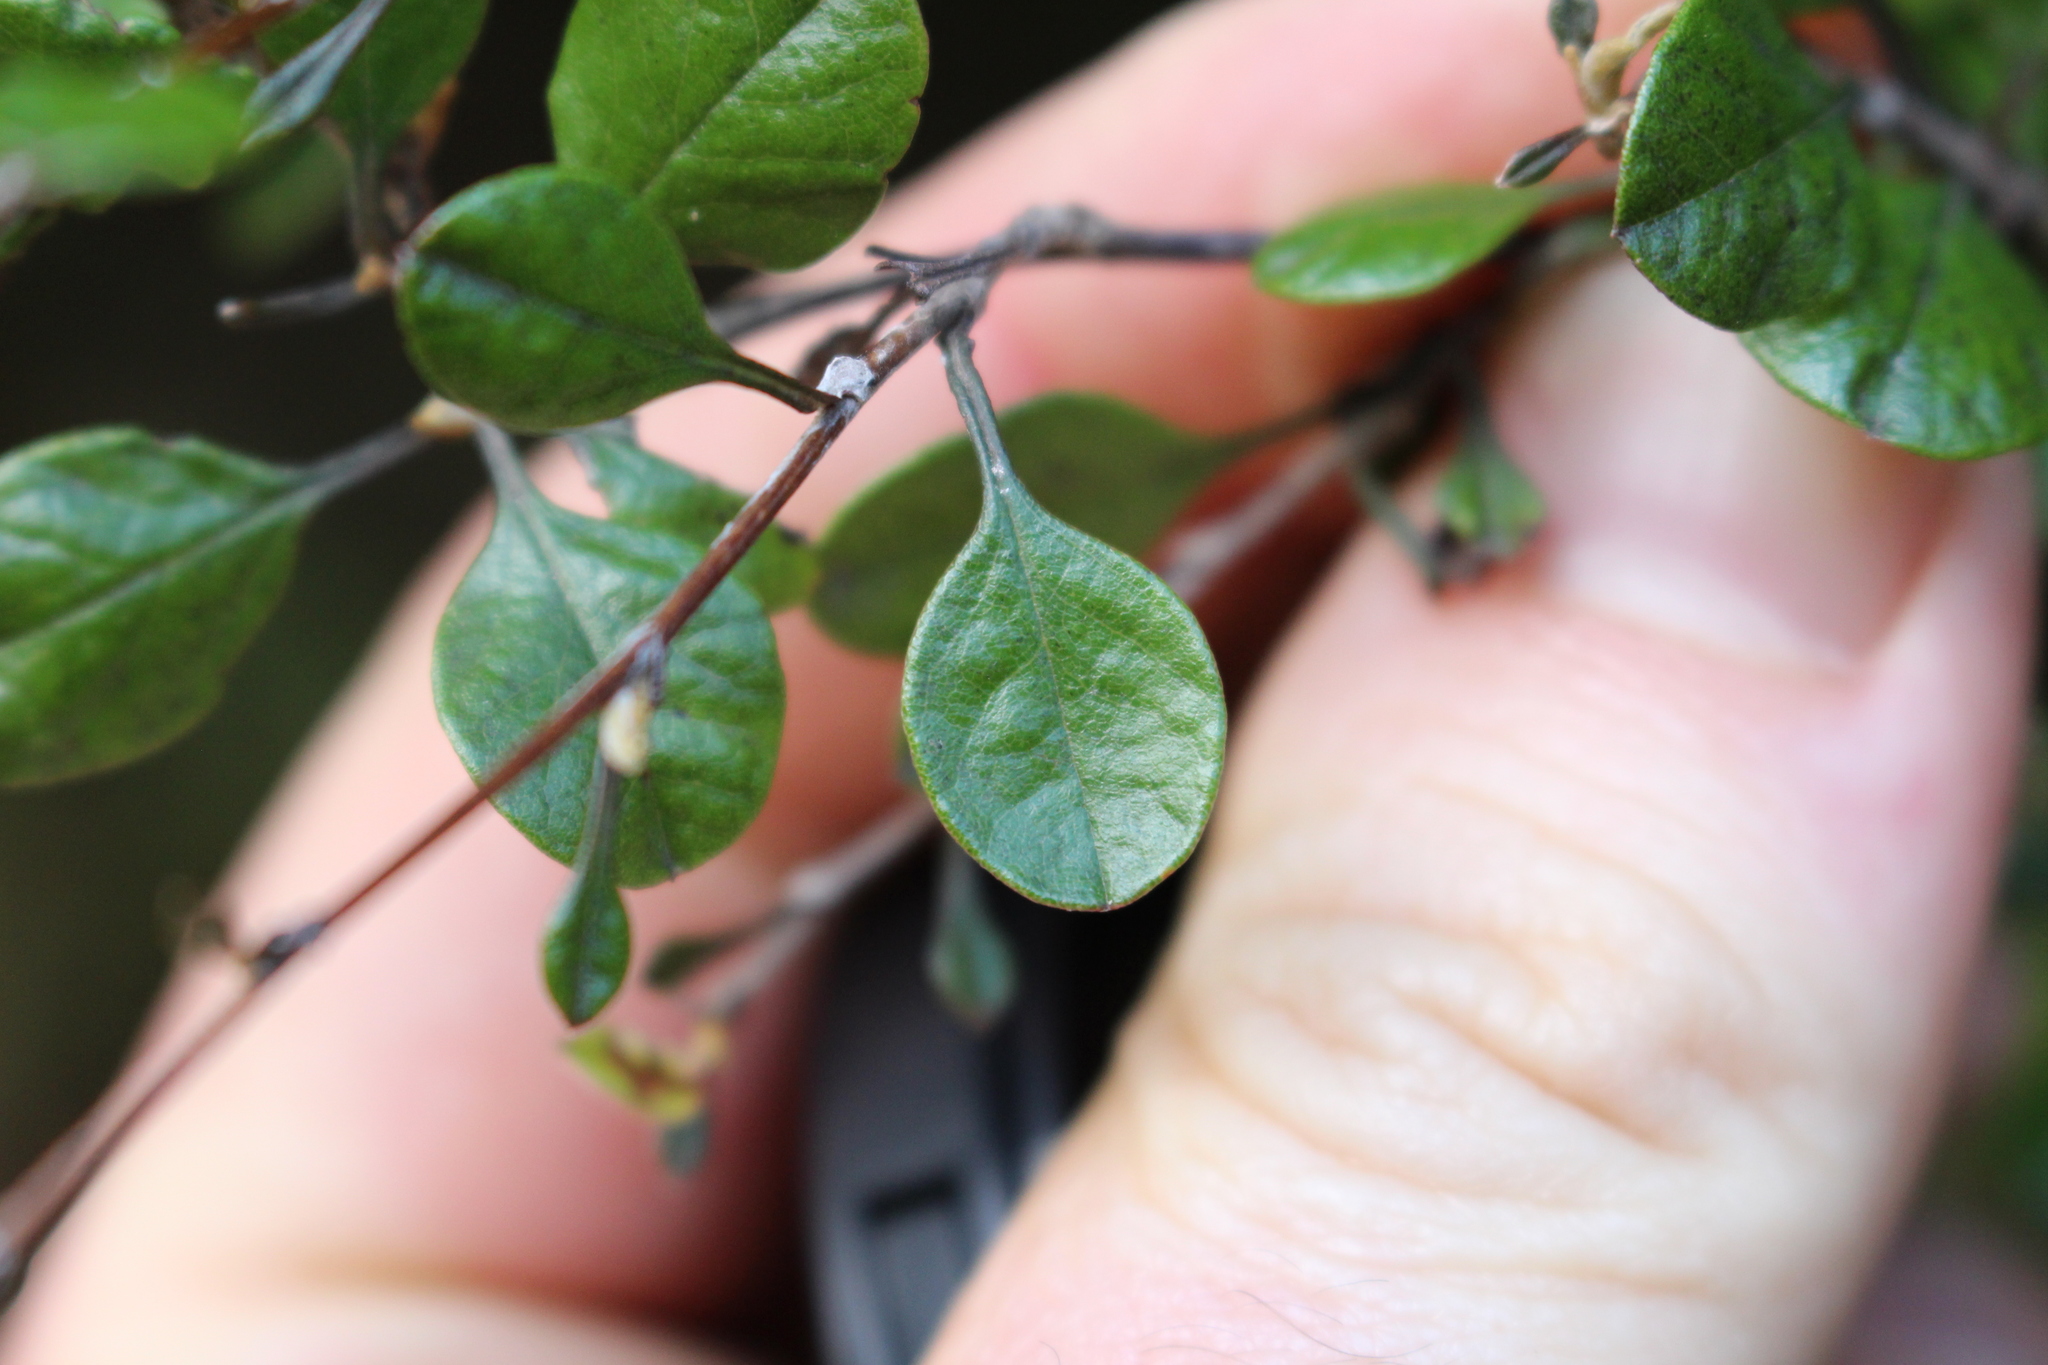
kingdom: Plantae
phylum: Tracheophyta
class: Magnoliopsida
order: Asterales
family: Asteraceae
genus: Ozothamnus
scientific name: Ozothamnus glomeratus
